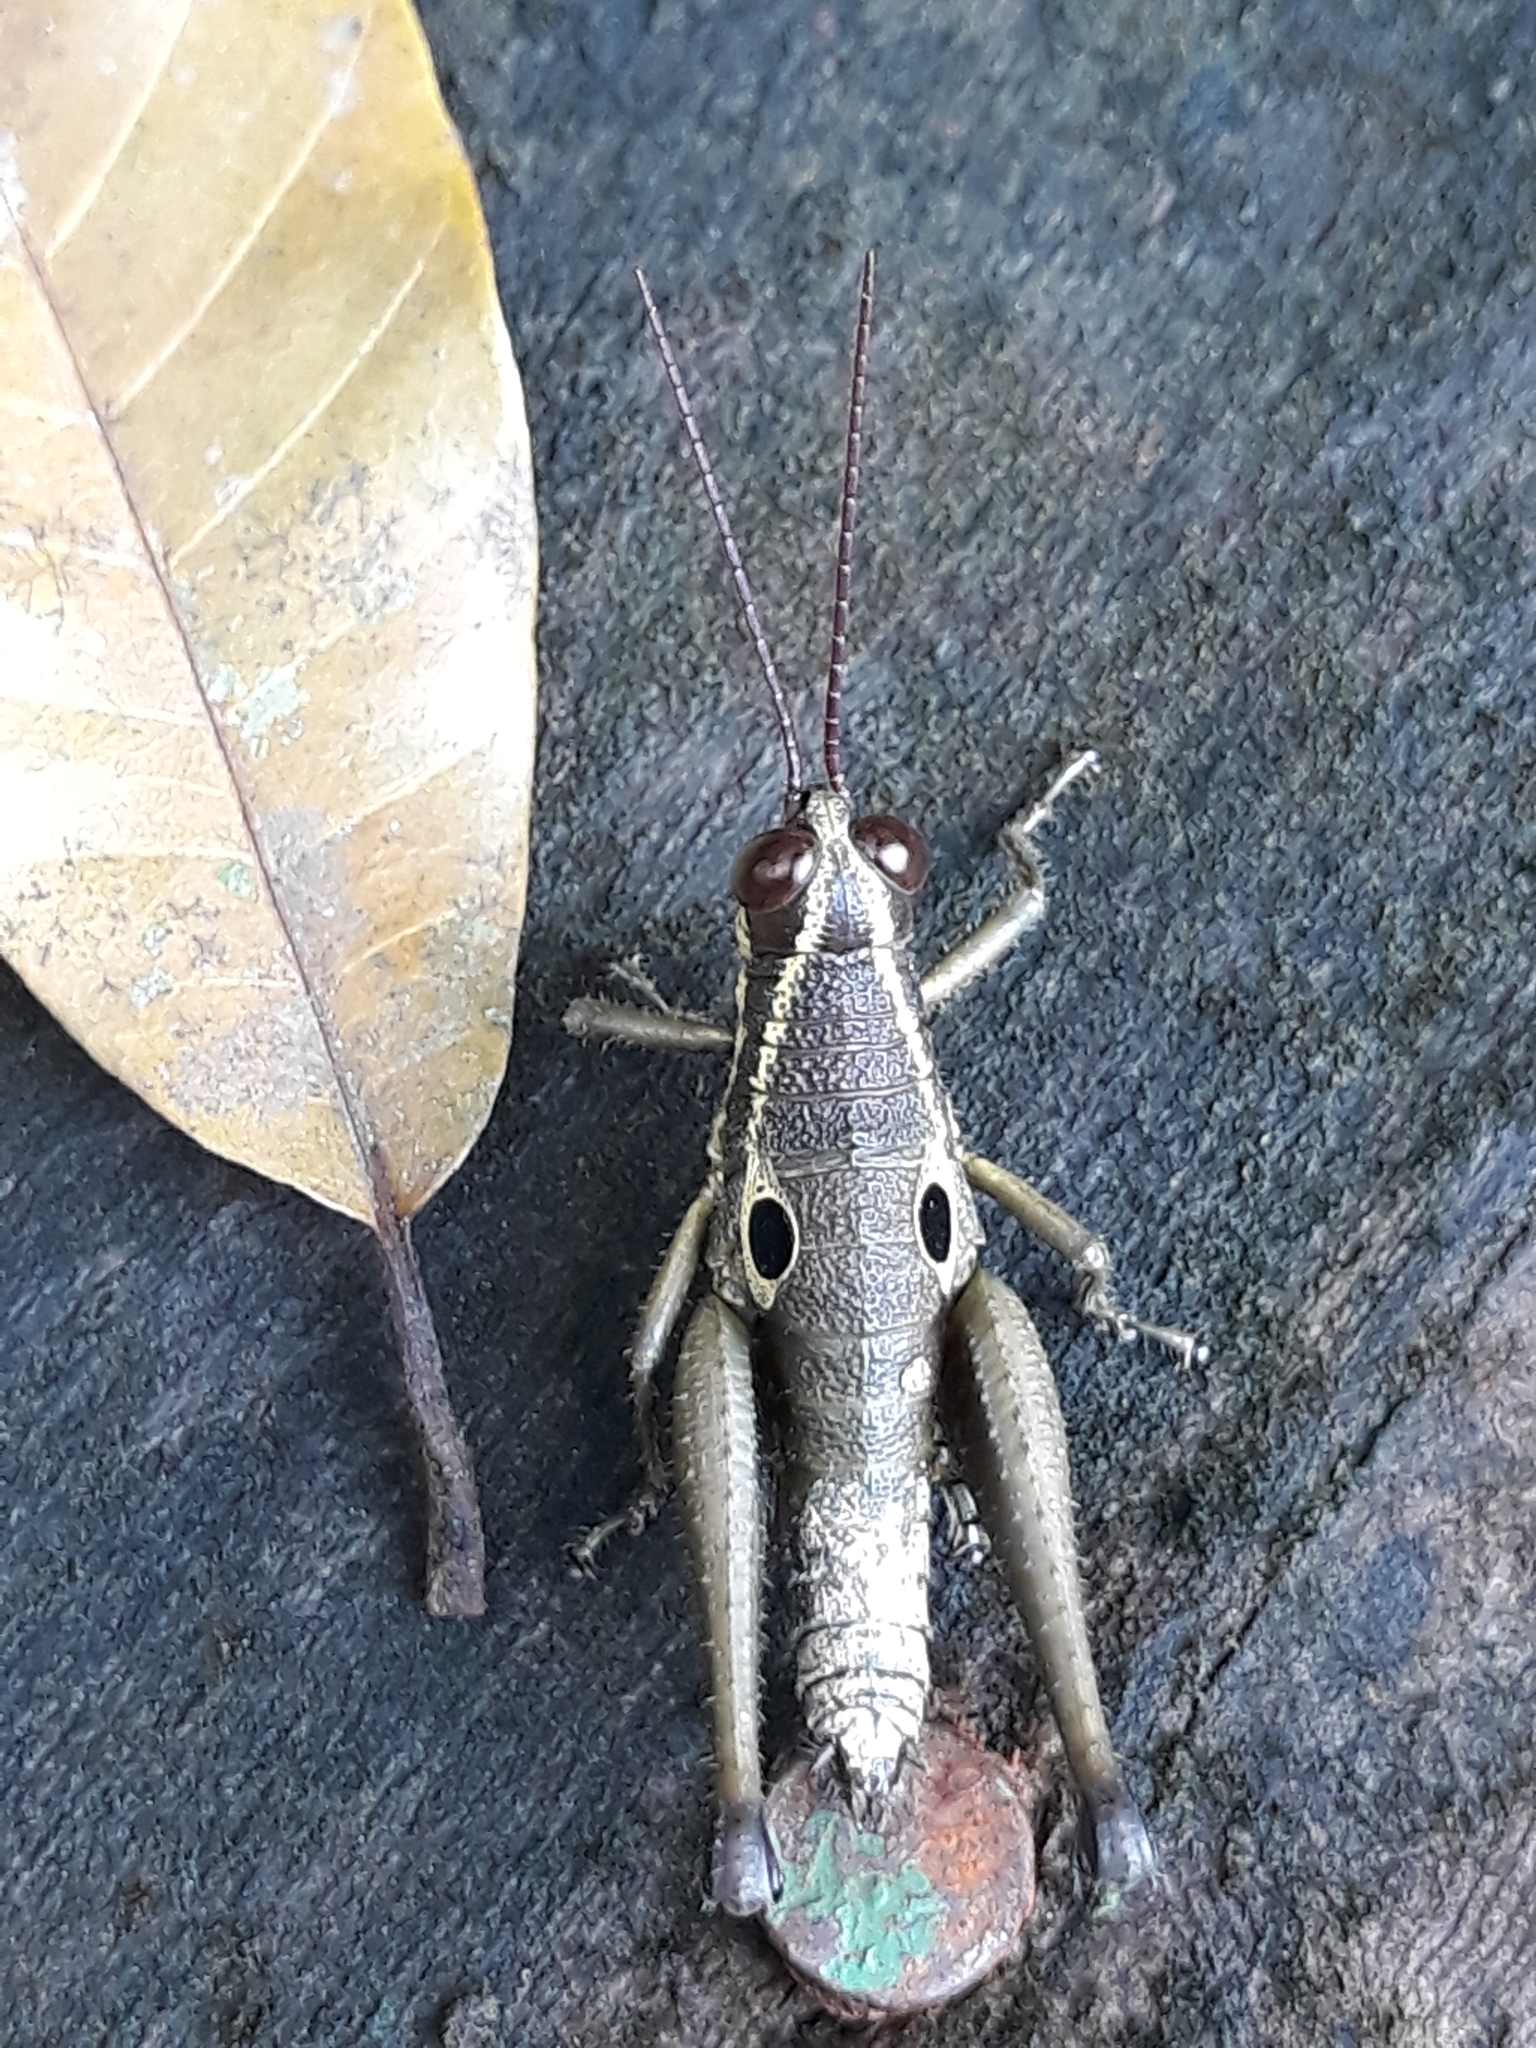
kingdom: Animalia
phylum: Arthropoda
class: Insecta
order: Orthoptera
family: Acrididae
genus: Ommatolampis
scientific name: Ommatolampis perspicillata
